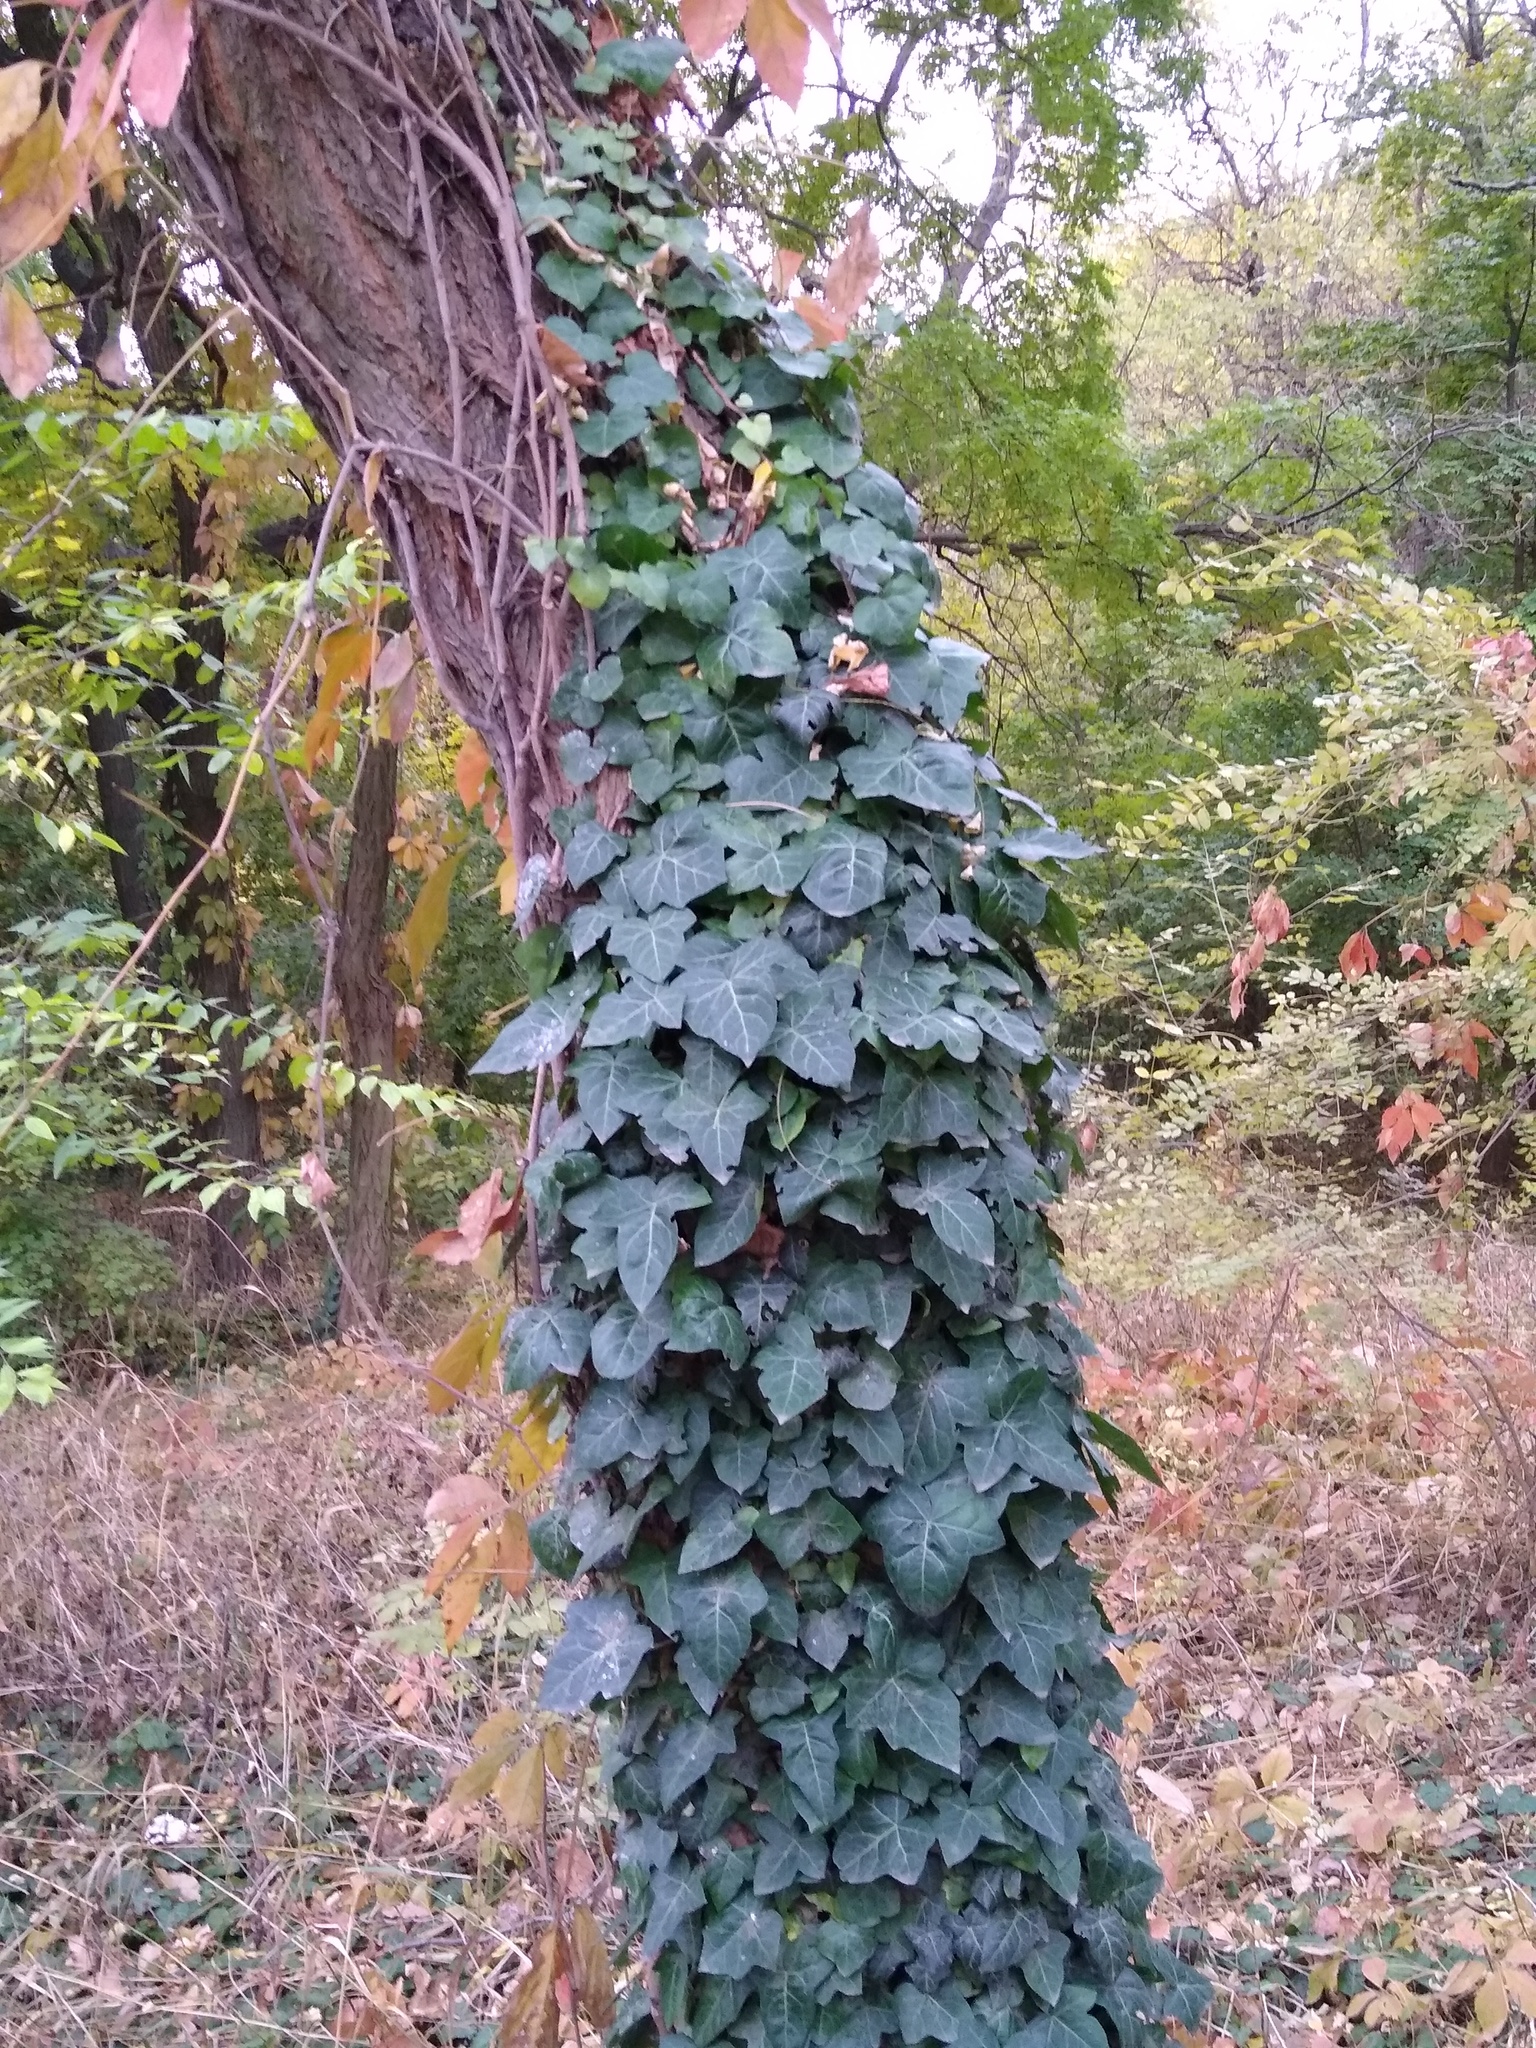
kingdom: Plantae
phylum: Tracheophyta
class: Magnoliopsida
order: Apiales
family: Araliaceae
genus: Hedera
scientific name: Hedera helix
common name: Ivy
